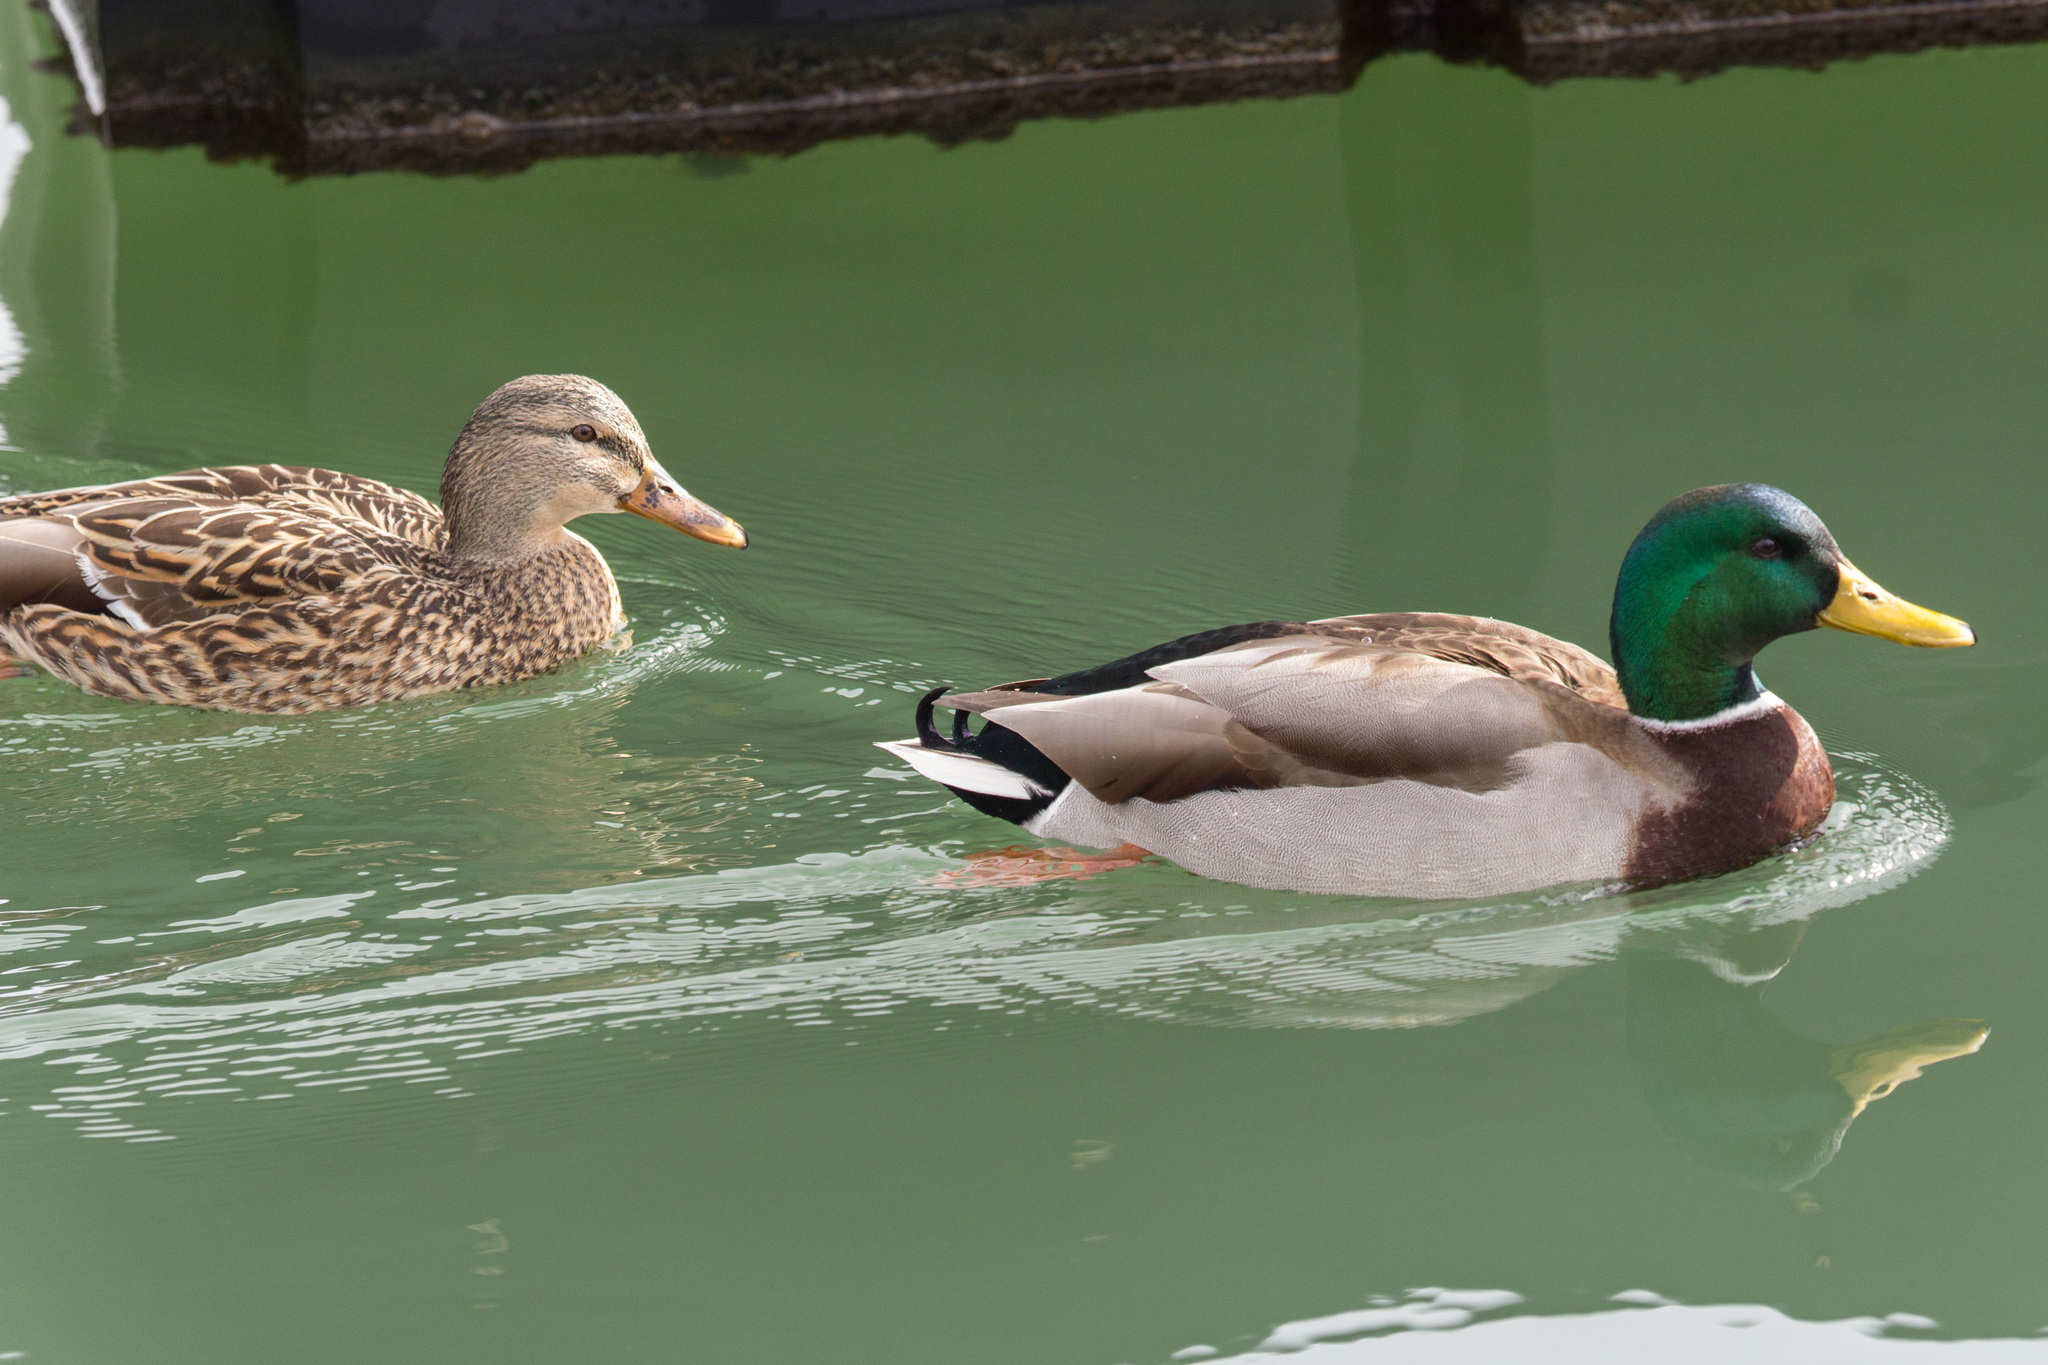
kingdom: Animalia
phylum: Chordata
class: Aves
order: Anseriformes
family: Anatidae
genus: Anas
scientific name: Anas platyrhynchos
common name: Mallard
